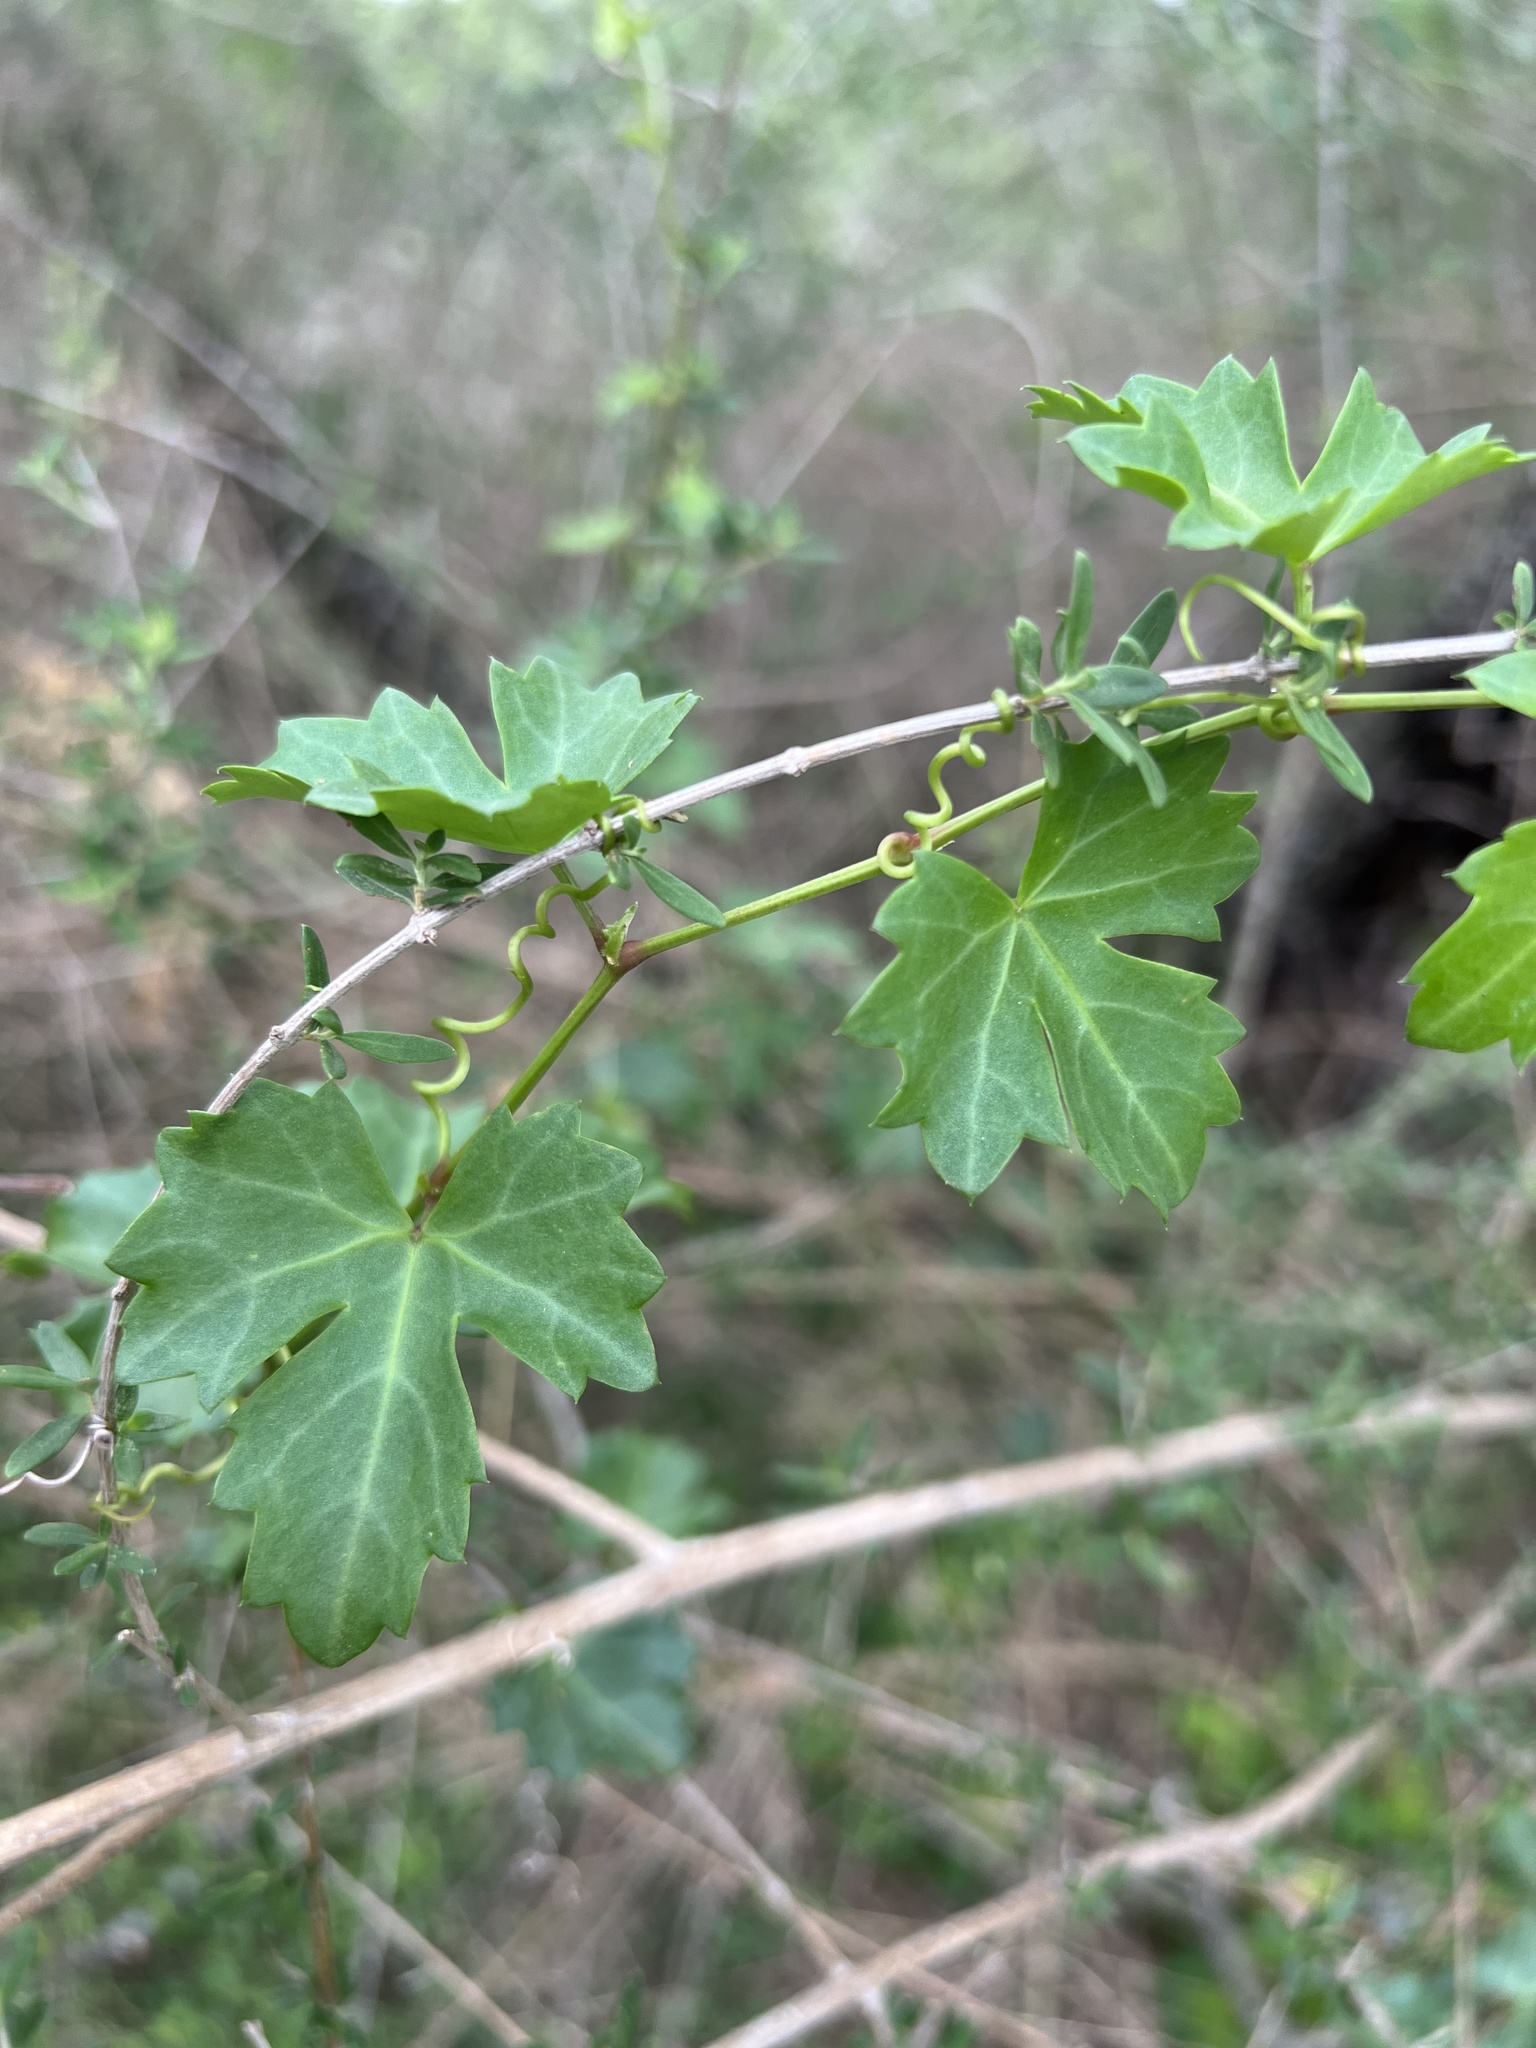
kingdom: Plantae
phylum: Tracheophyta
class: Magnoliopsida
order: Vitales
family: Vitaceae
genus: Cissus
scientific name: Cissus trifoliata
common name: Vine-sorrel
